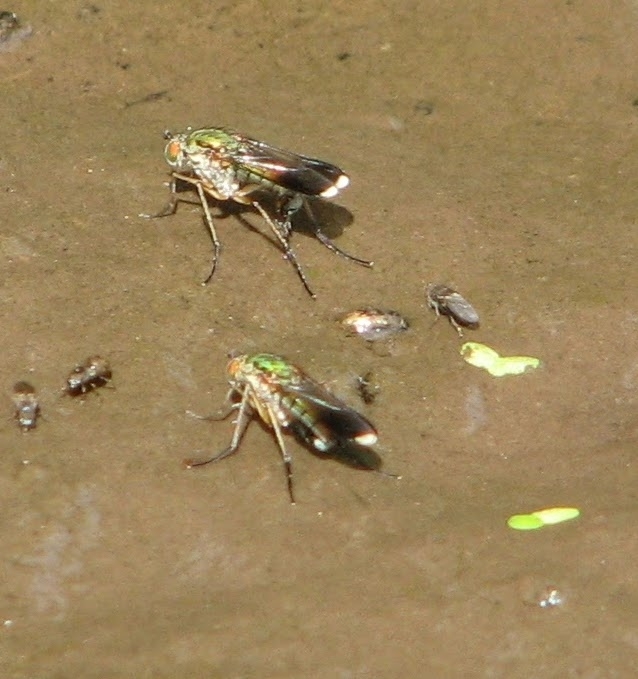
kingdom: Animalia
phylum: Arthropoda
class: Insecta
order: Diptera
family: Dolichopodidae
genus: Poecilobothrus
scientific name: Poecilobothrus nobilitatus
